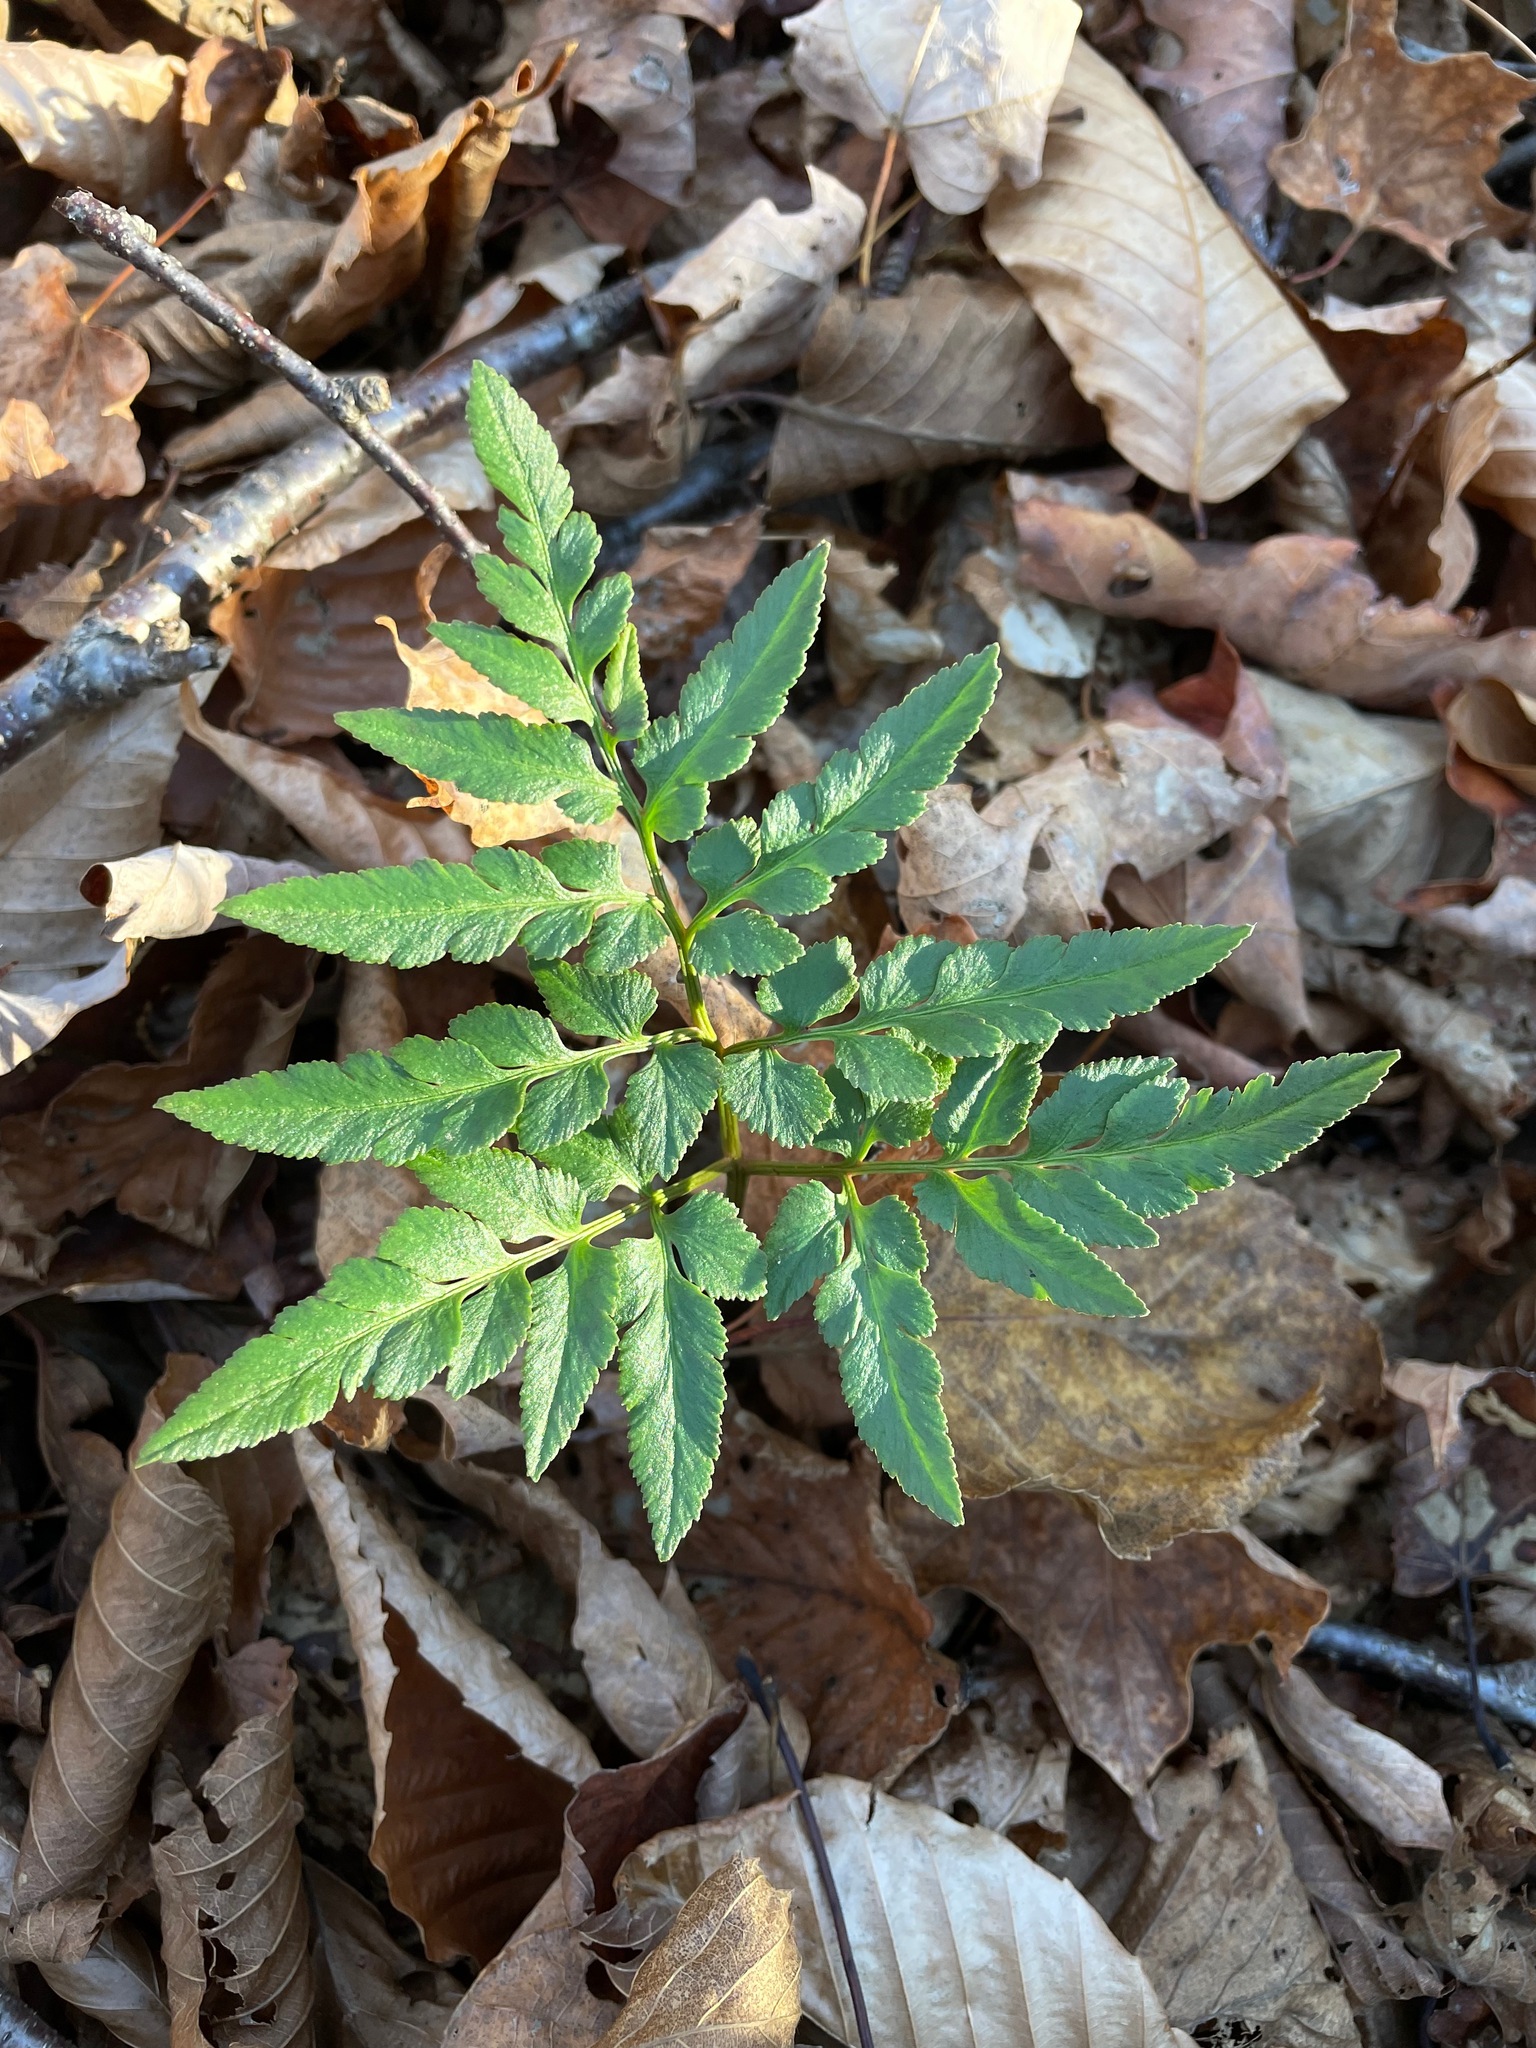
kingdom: Plantae
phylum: Tracheophyta
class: Polypodiopsida
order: Ophioglossales
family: Ophioglossaceae
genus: Sceptridium
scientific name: Sceptridium dissectum
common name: Cut-leaved grapefern
